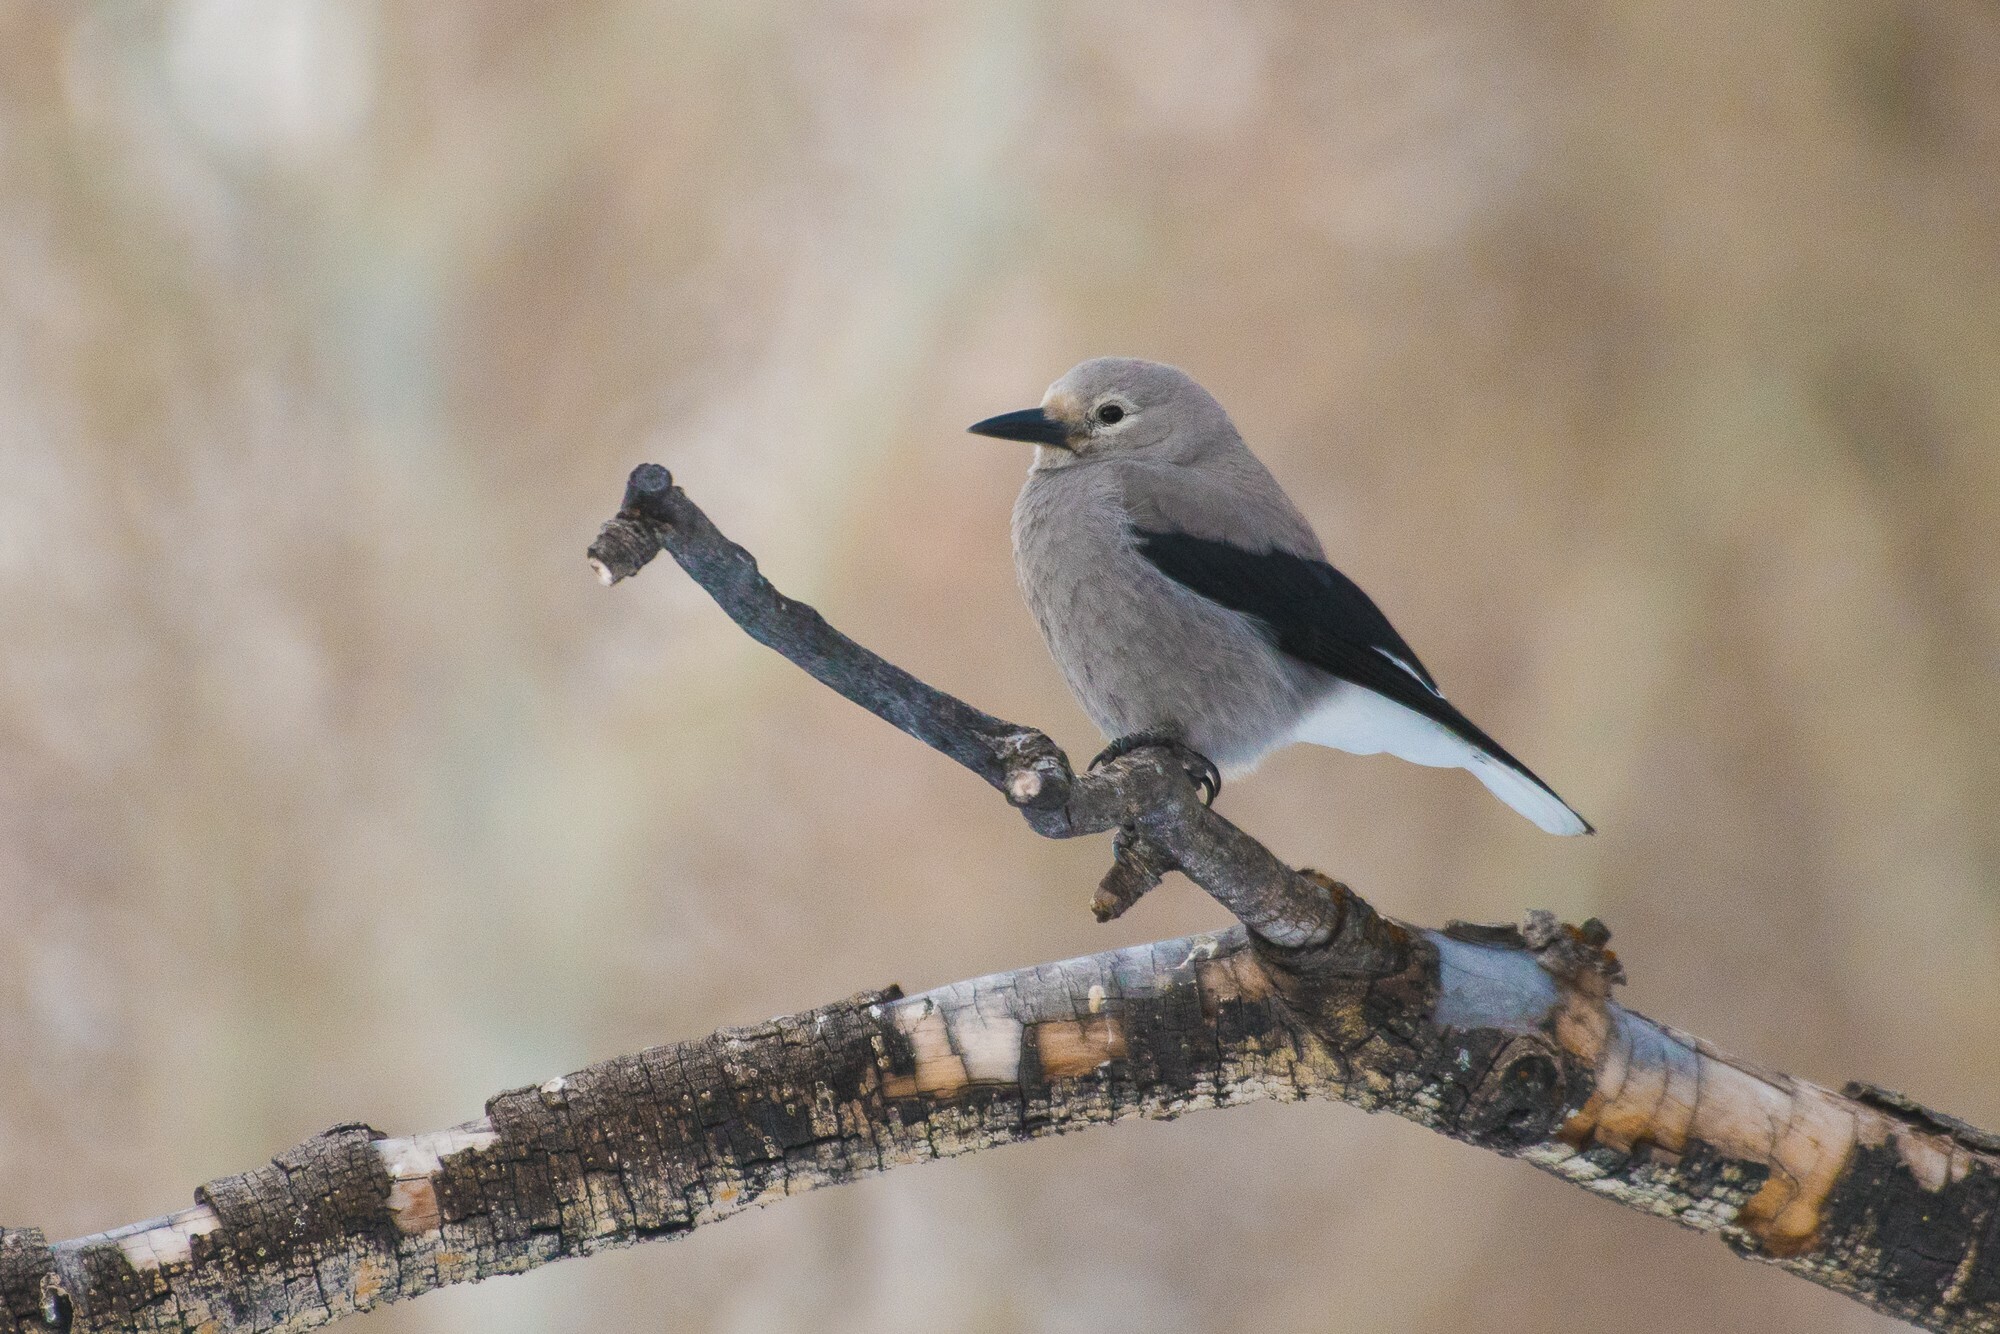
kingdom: Animalia
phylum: Chordata
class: Aves
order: Passeriformes
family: Corvidae
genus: Nucifraga
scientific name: Nucifraga columbiana
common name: Clark's nutcracker
